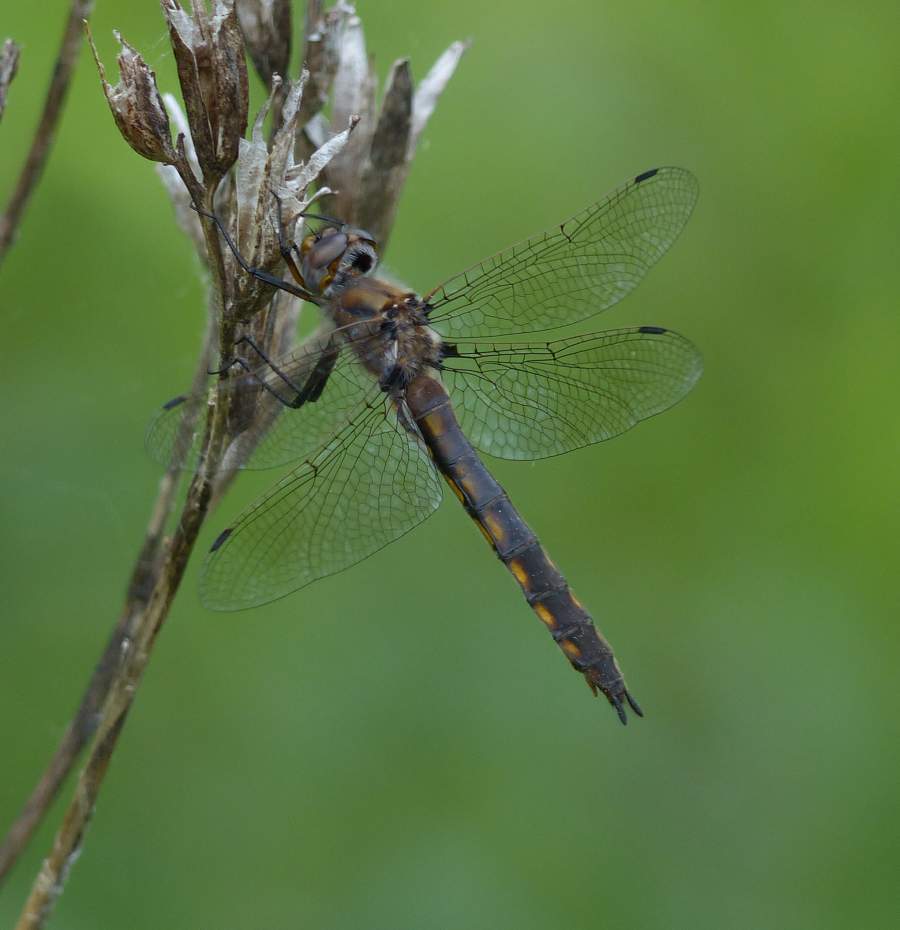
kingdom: Animalia
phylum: Arthropoda
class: Insecta
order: Odonata
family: Corduliidae
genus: Epitheca
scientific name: Epitheca canis
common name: Beaverpond baskettail
